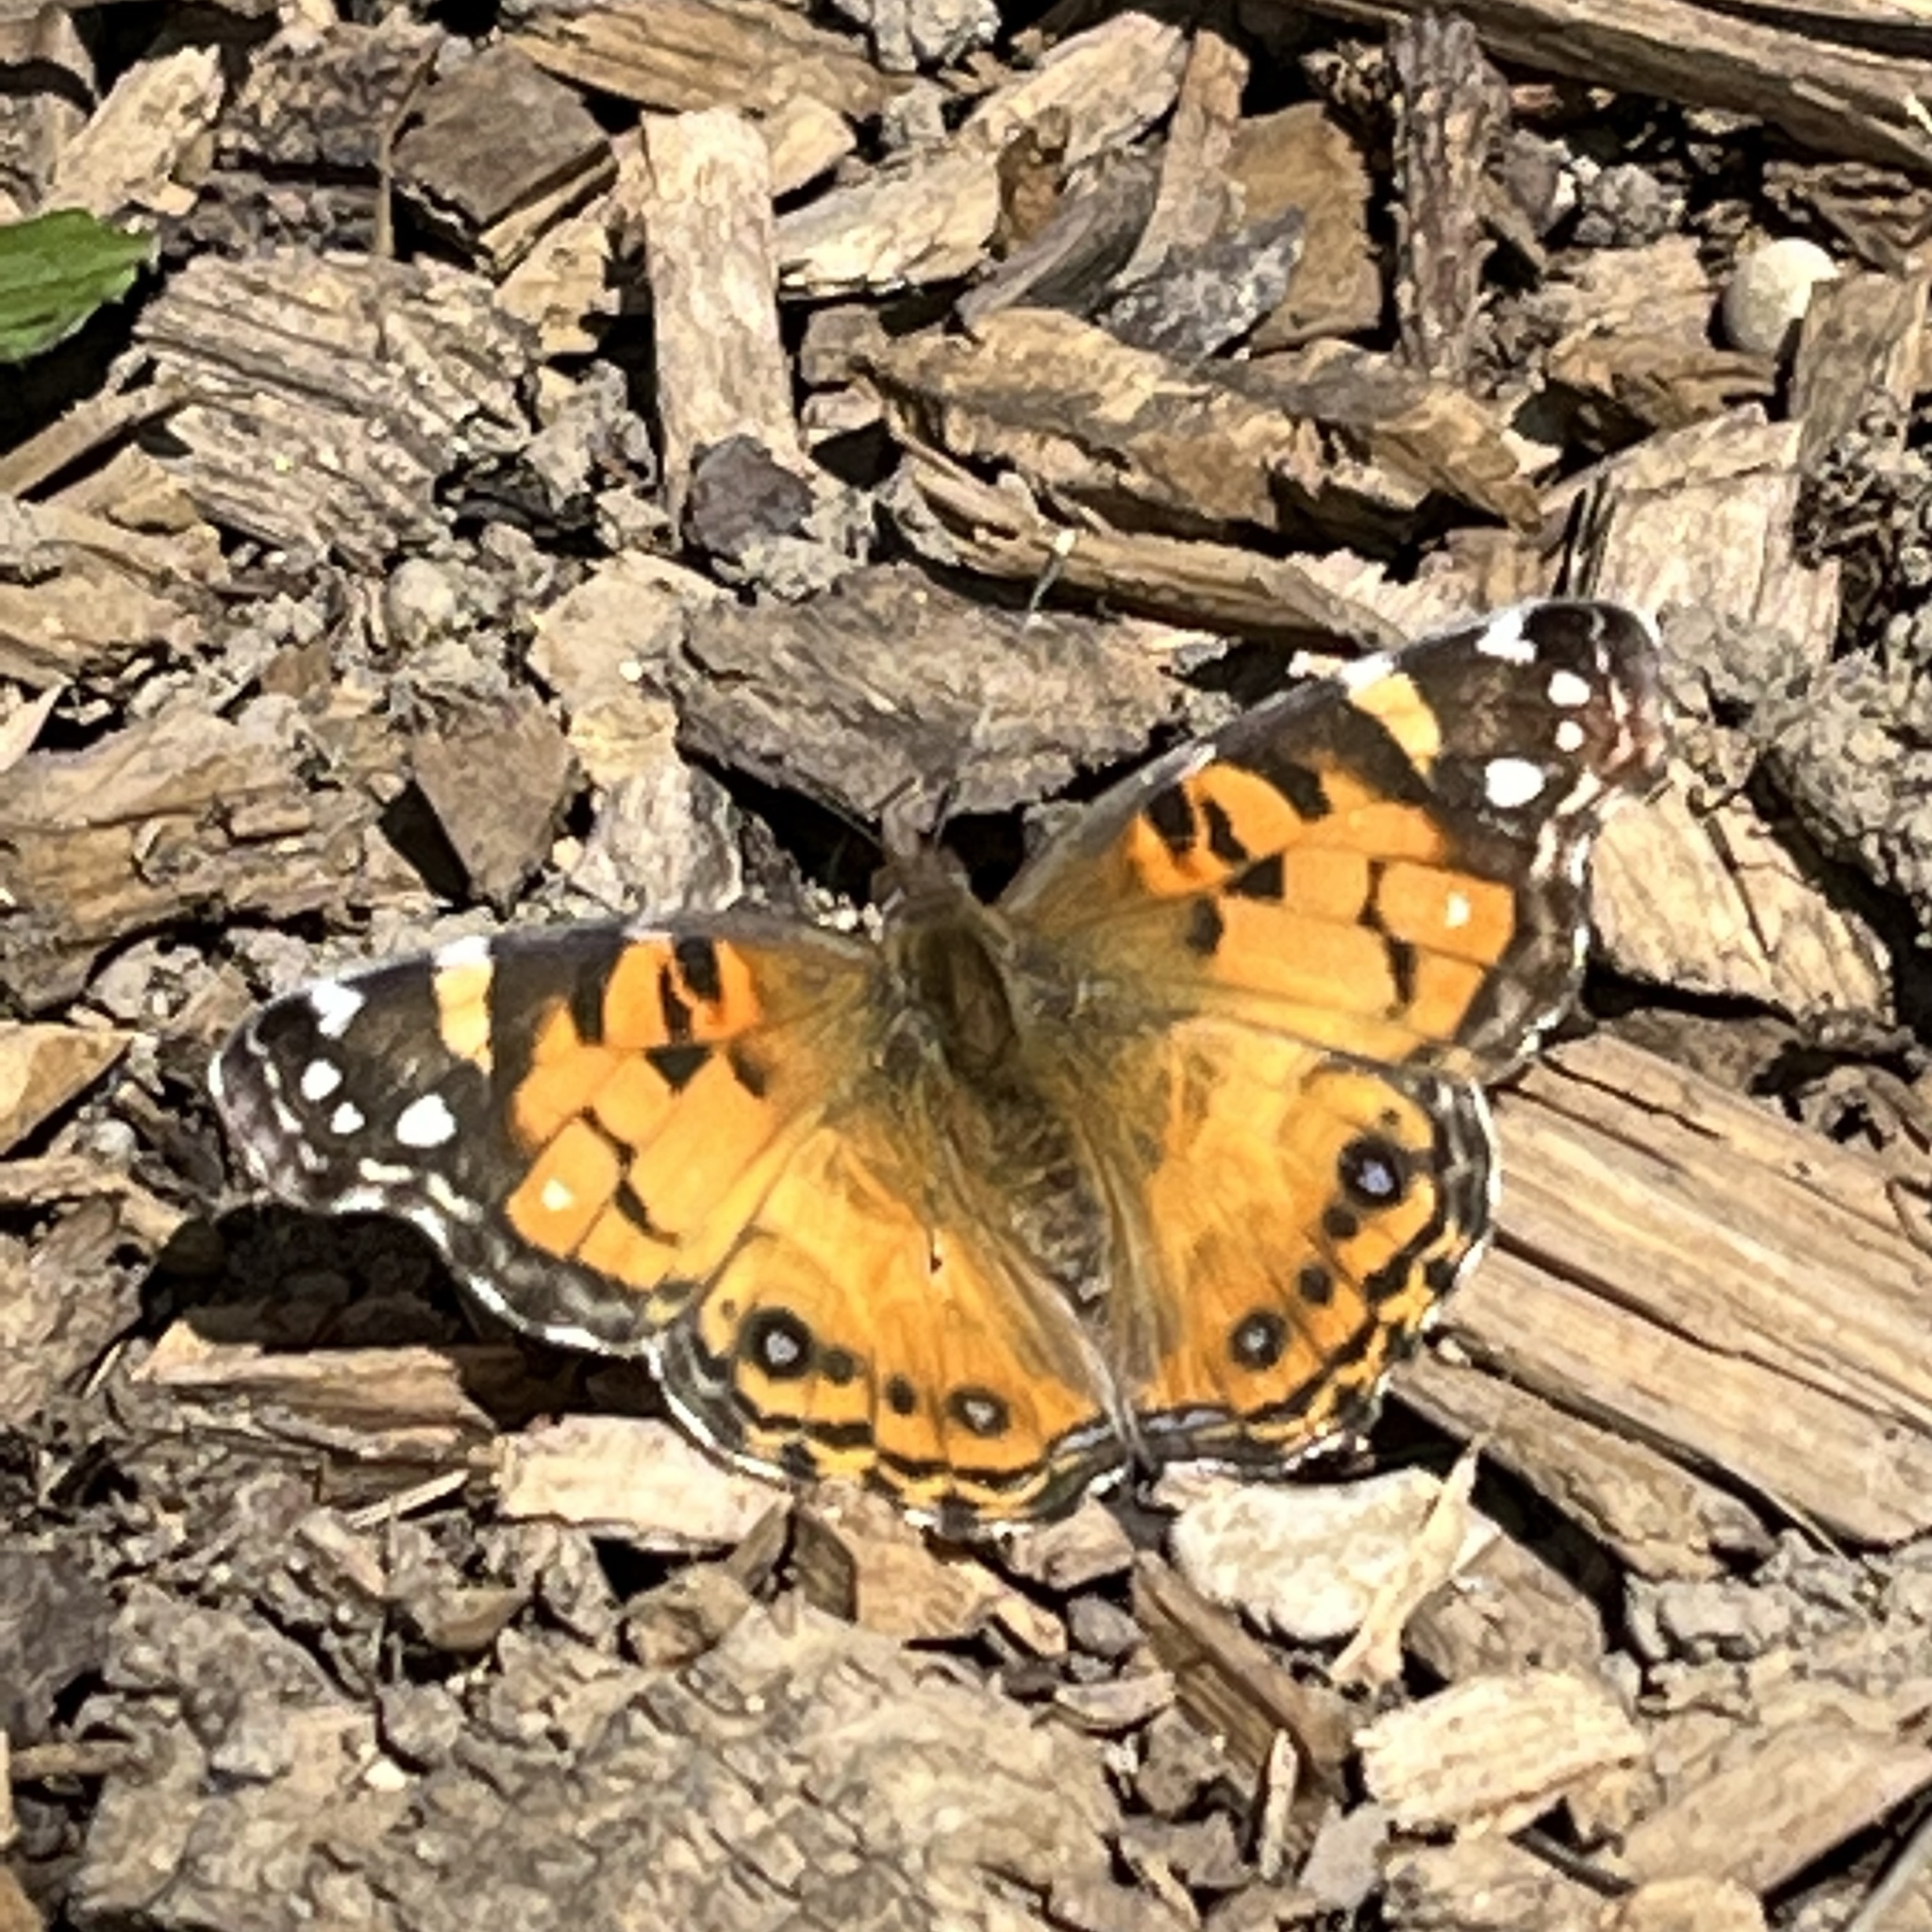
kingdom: Animalia
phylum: Arthropoda
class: Insecta
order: Lepidoptera
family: Nymphalidae
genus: Vanessa
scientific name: Vanessa virginiensis
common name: American lady
